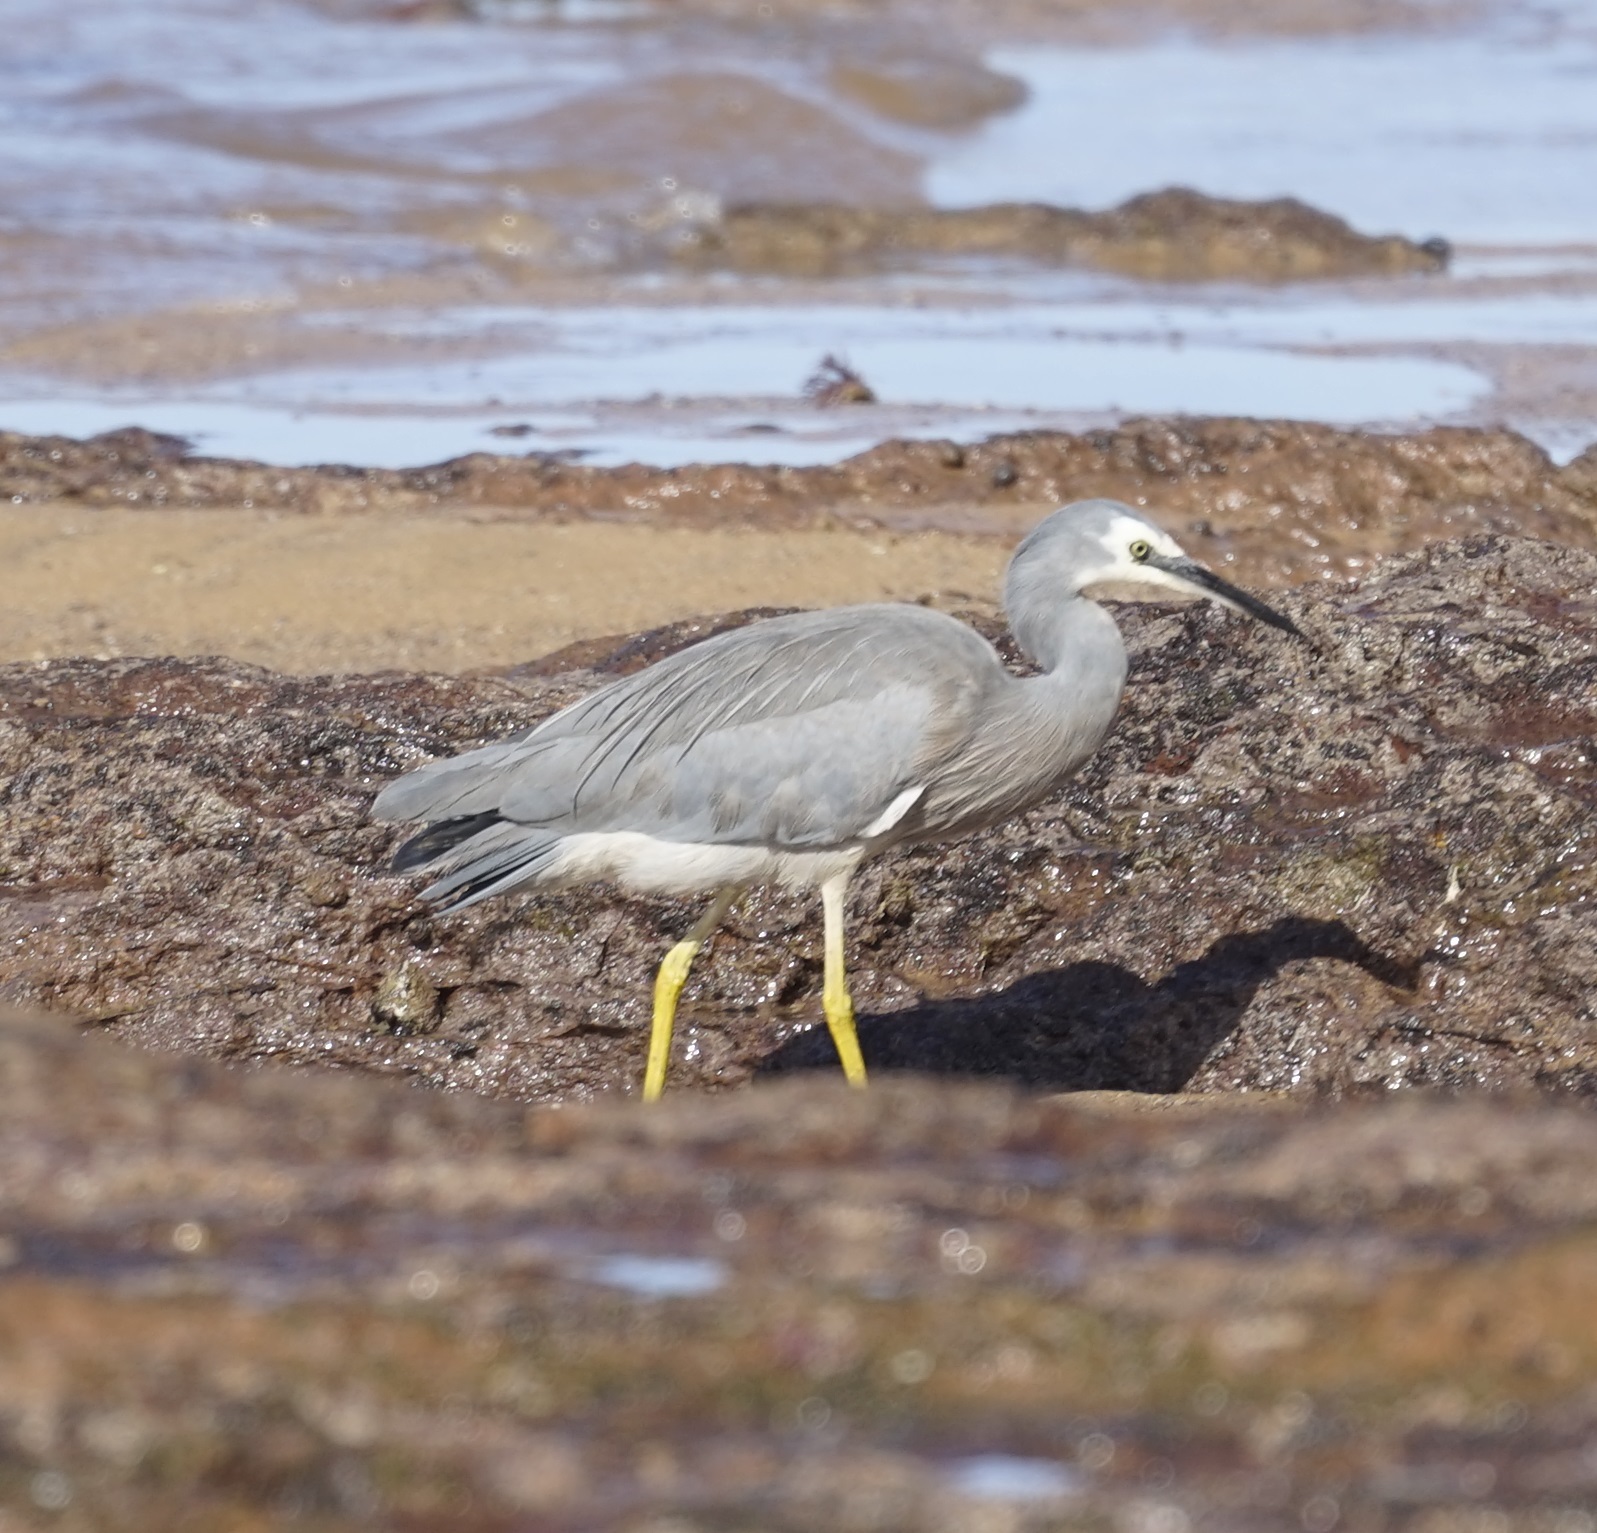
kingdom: Animalia
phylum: Chordata
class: Aves
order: Pelecaniformes
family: Ardeidae
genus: Egretta
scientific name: Egretta novaehollandiae
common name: White-faced heron
